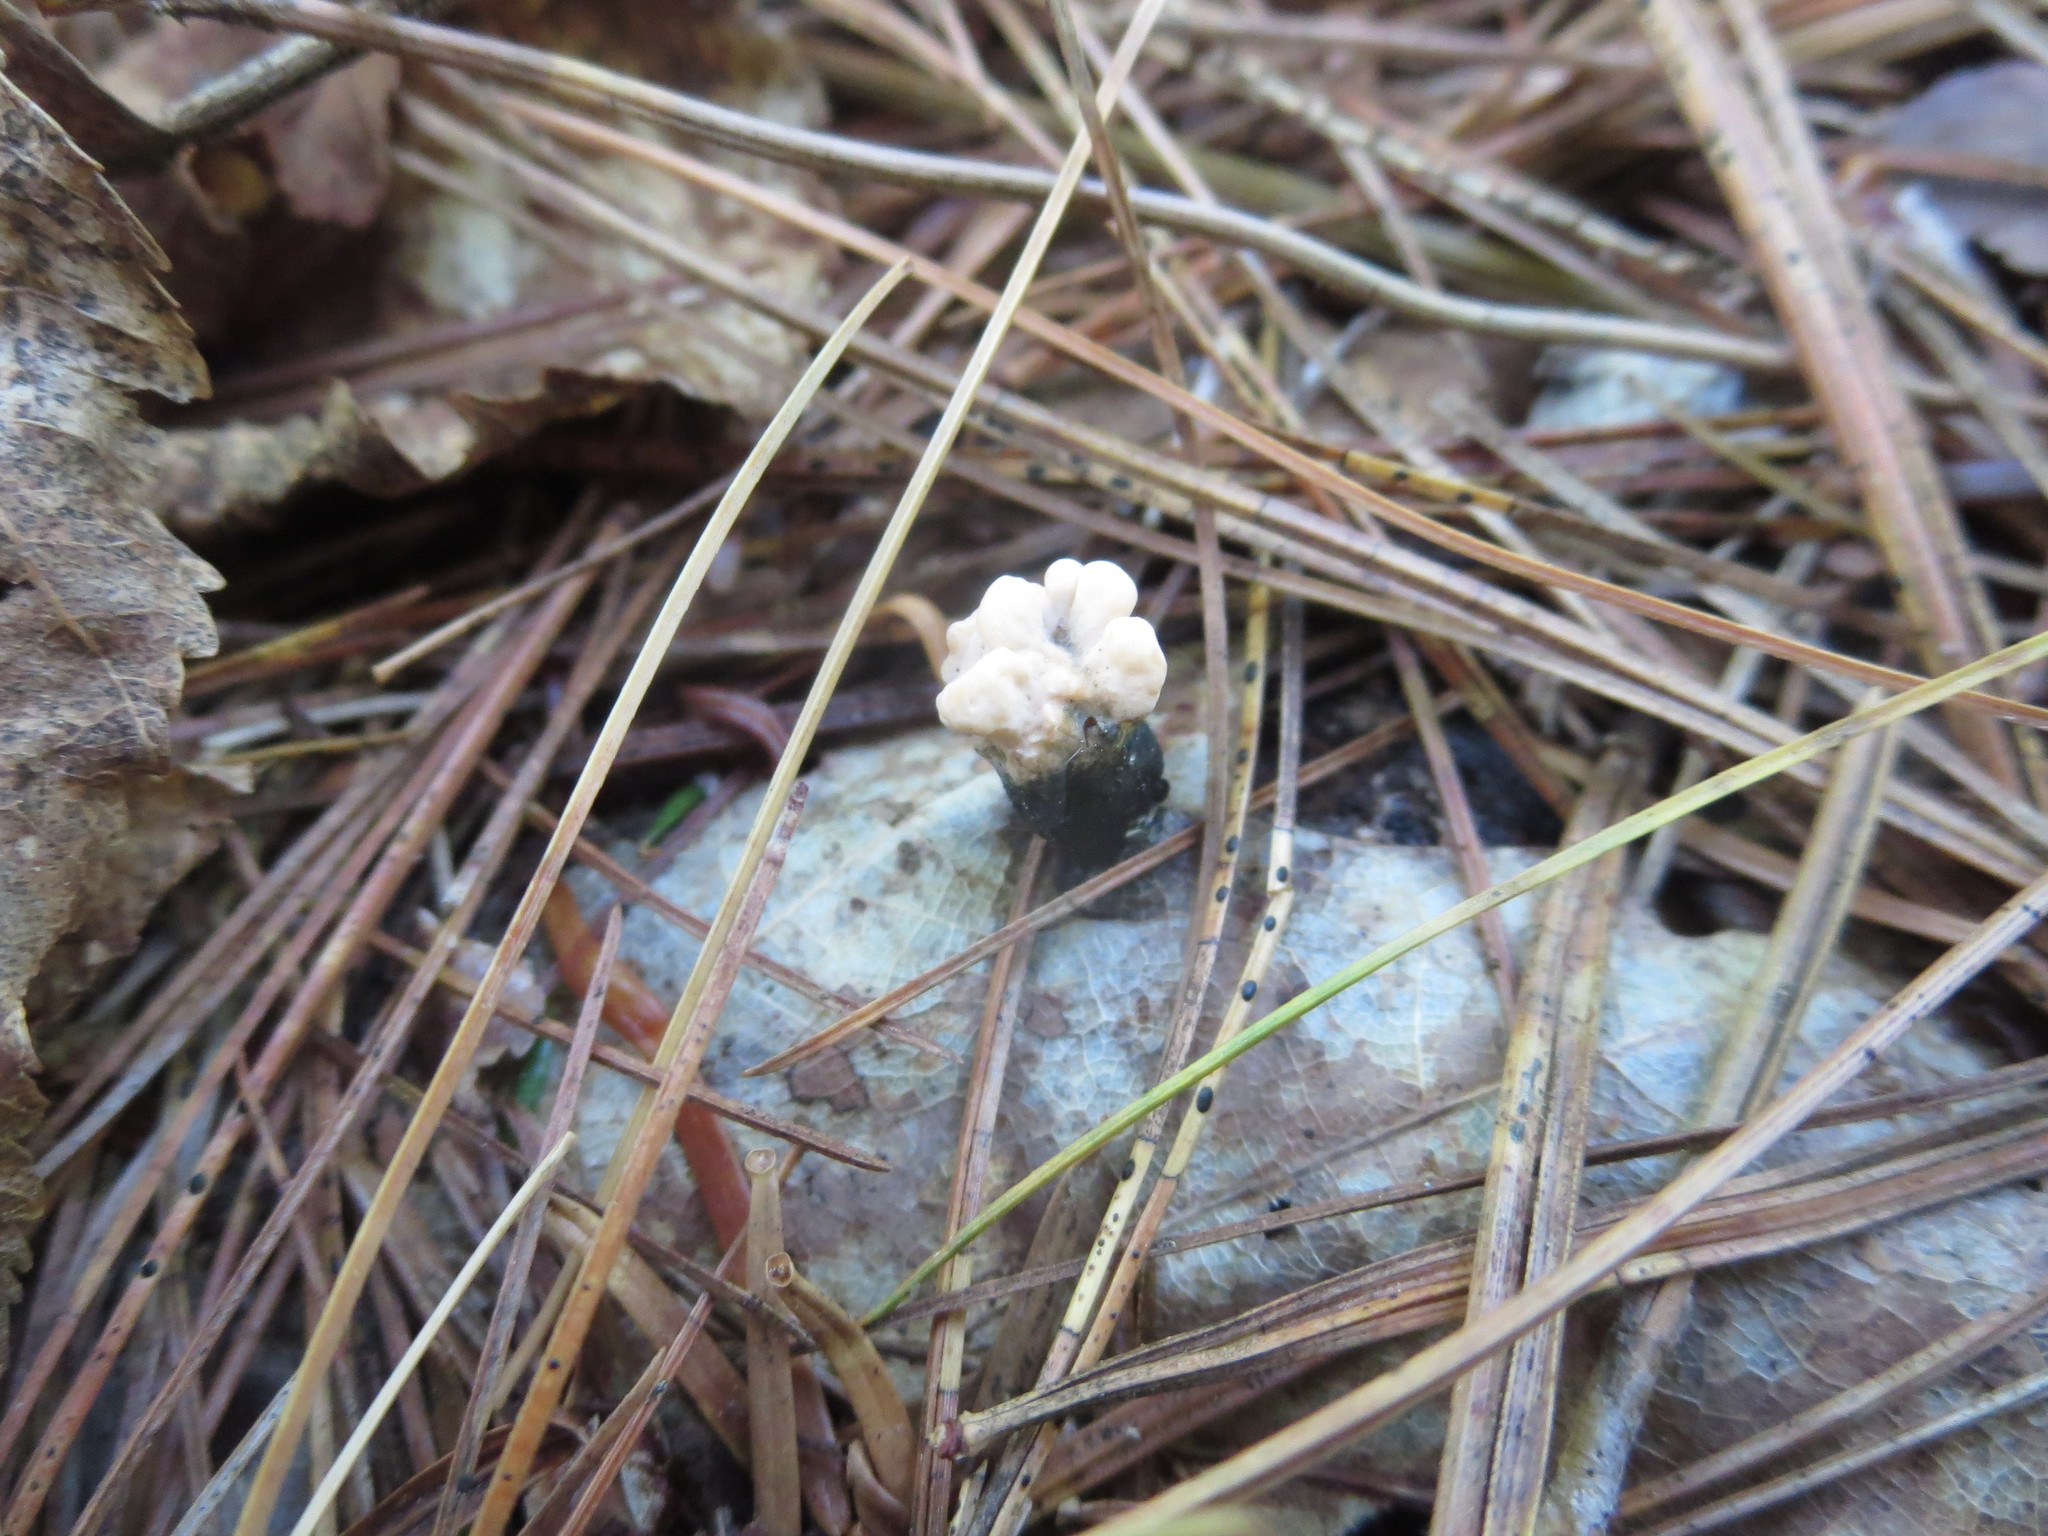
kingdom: Fungi
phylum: Ascomycota
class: Sordariomycetes
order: Xylariales
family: Xylariaceae
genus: Xylaria
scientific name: Xylaria cubensis
